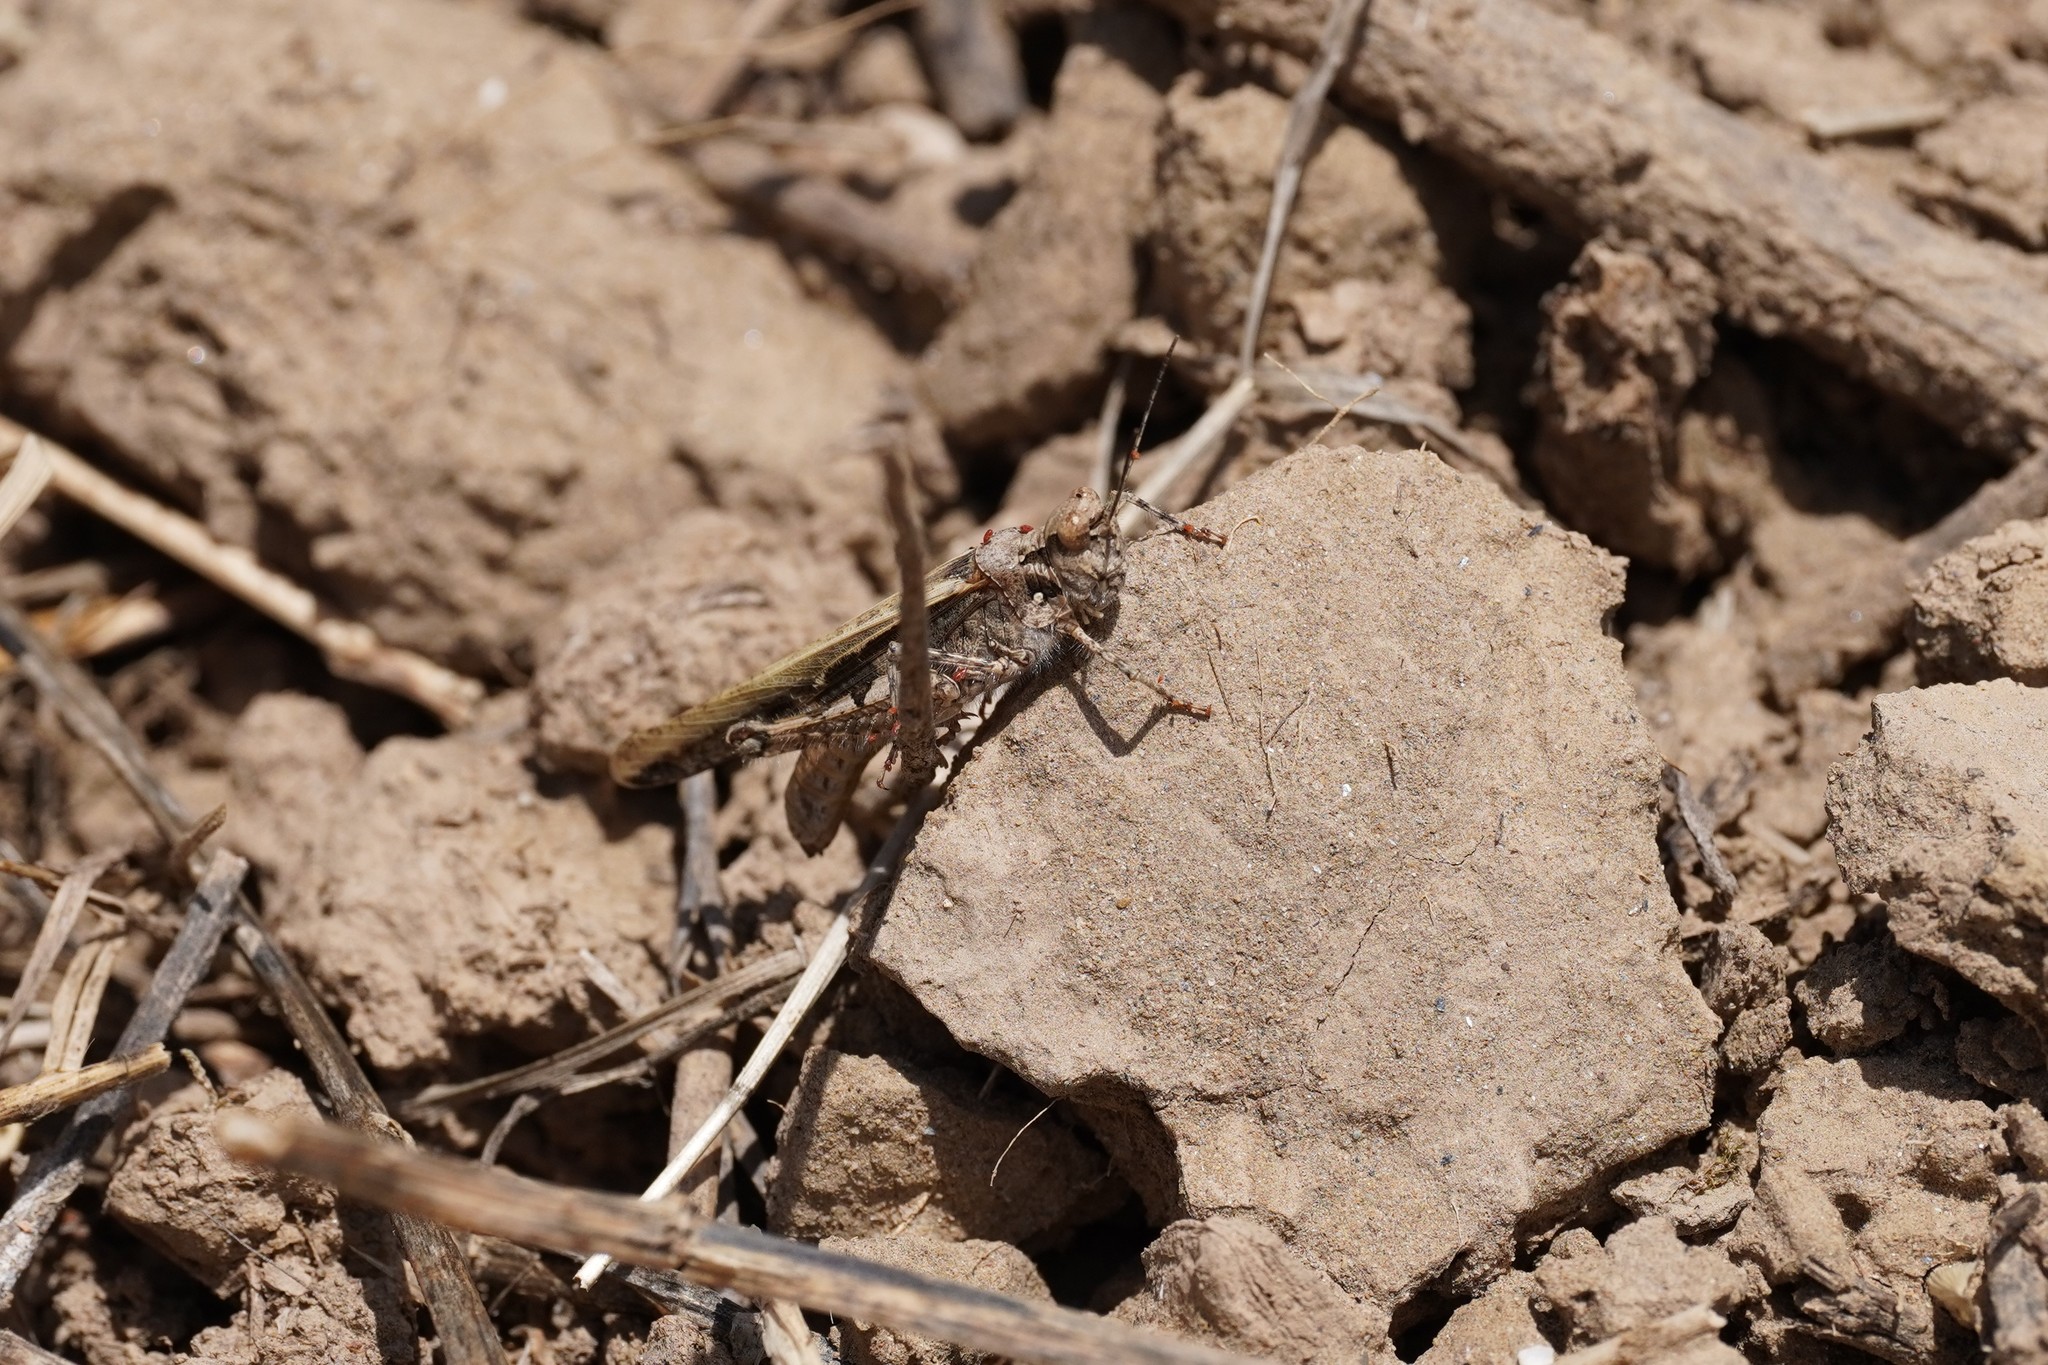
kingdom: Animalia
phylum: Arthropoda
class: Insecta
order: Orthoptera
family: Acrididae
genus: Acrotylus
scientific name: Acrotylus patruelis
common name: Slender burrowing grasshopper
